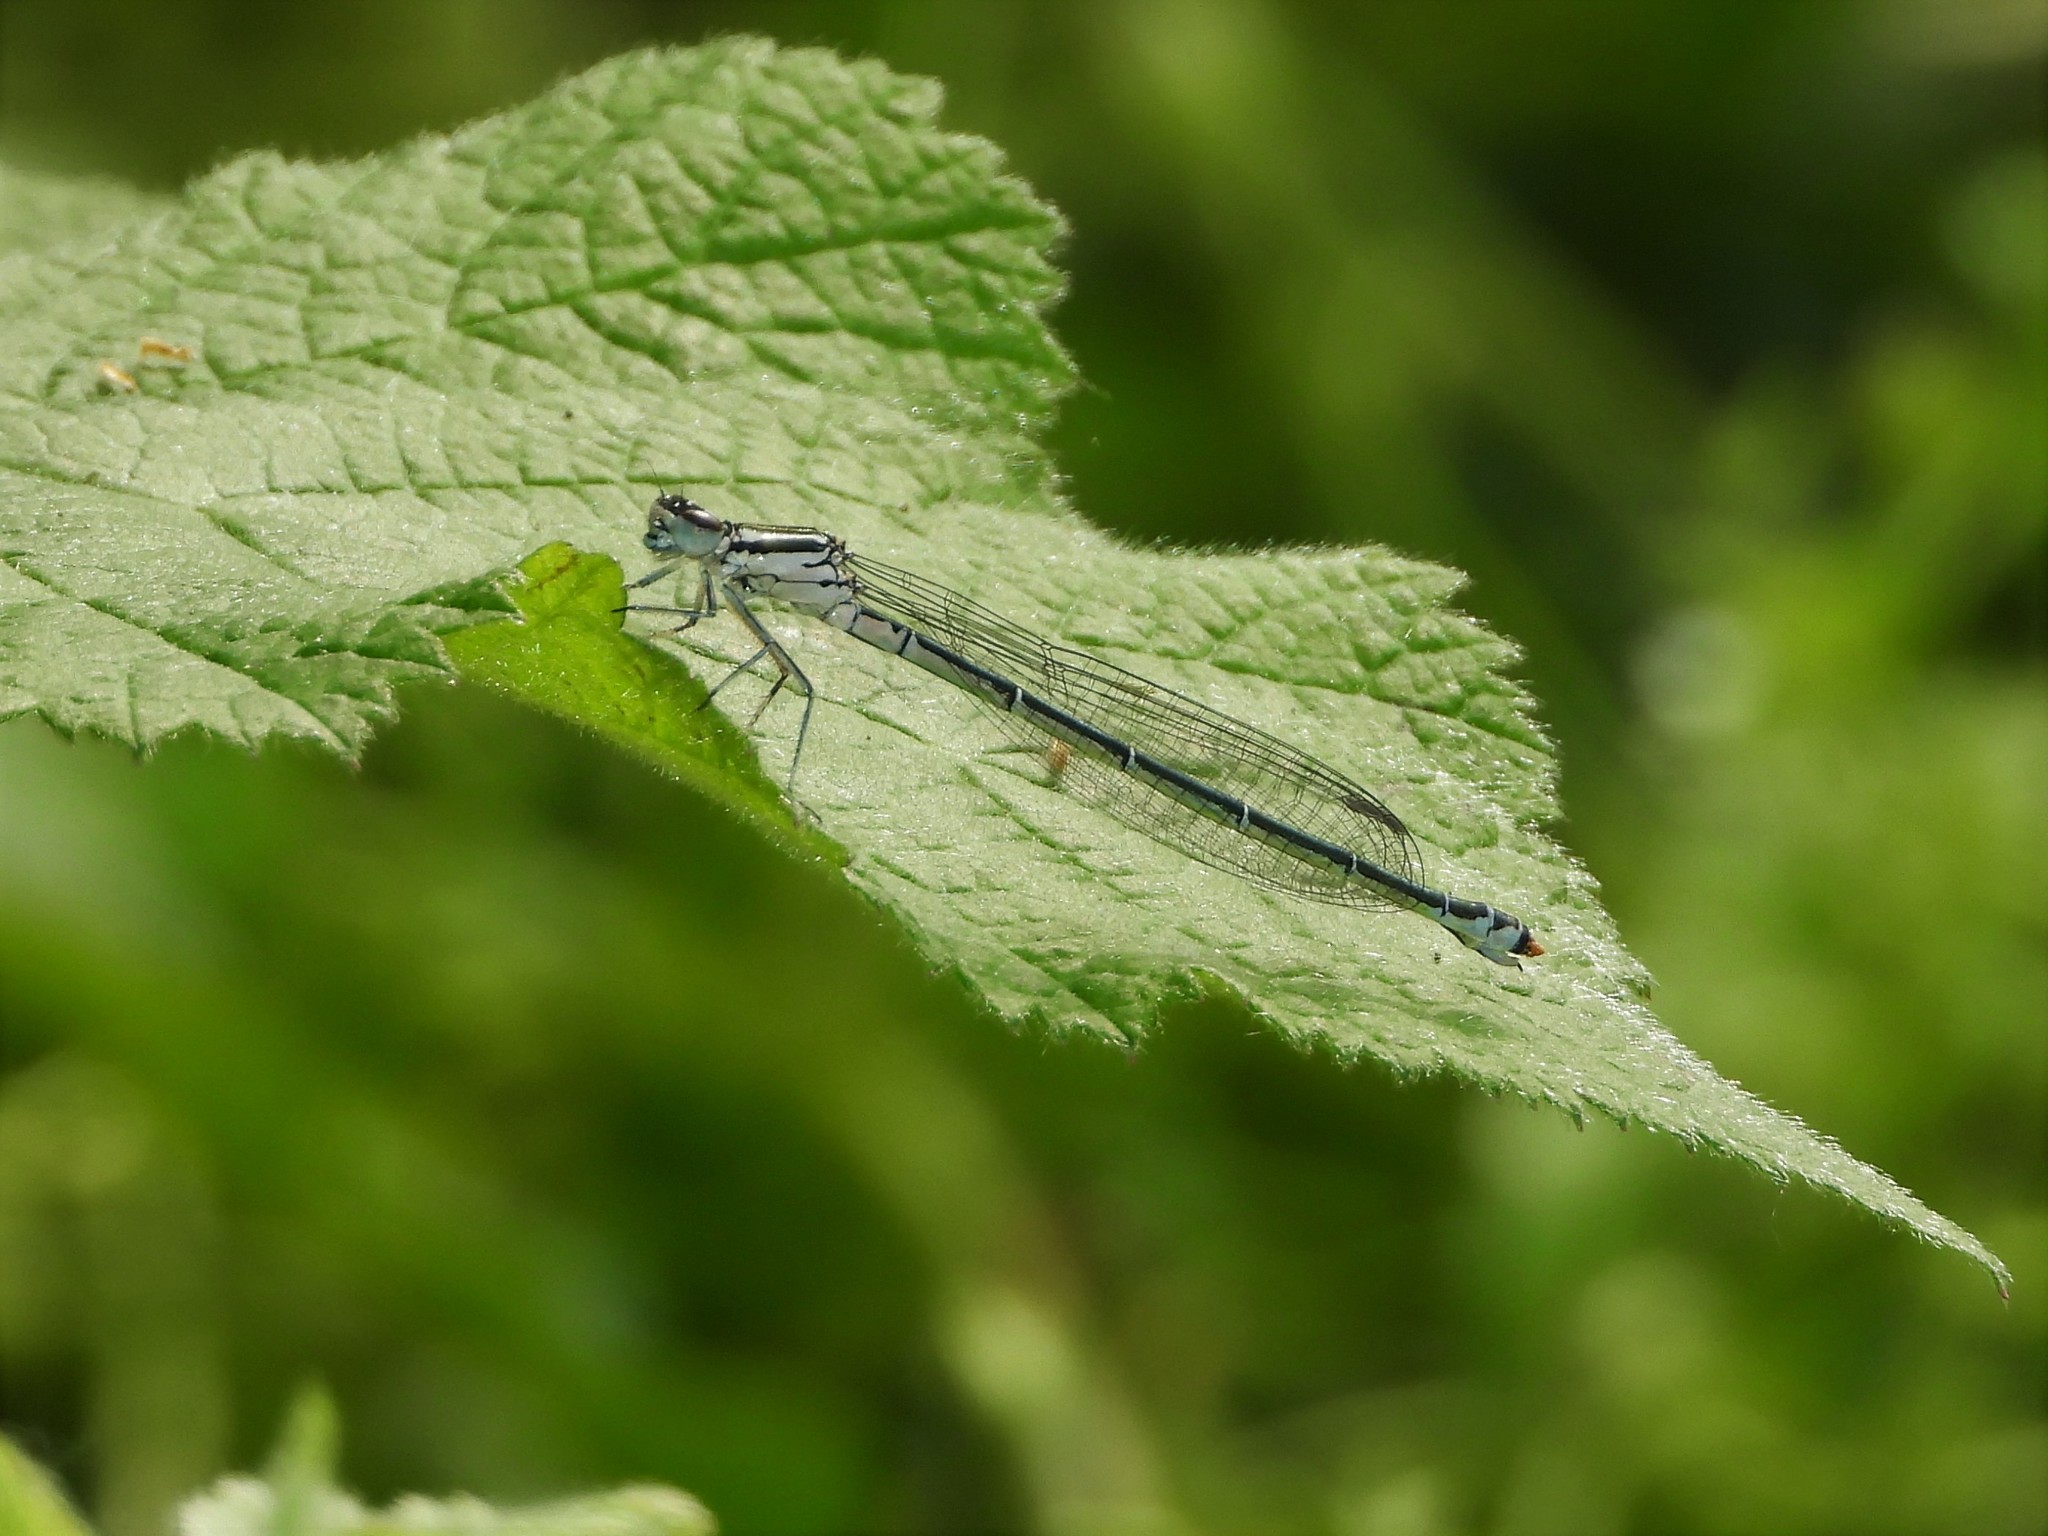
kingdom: Animalia
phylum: Arthropoda
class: Insecta
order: Odonata
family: Coenagrionidae
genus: Coenagrion
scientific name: Coenagrion puella
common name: Azure damselfly
